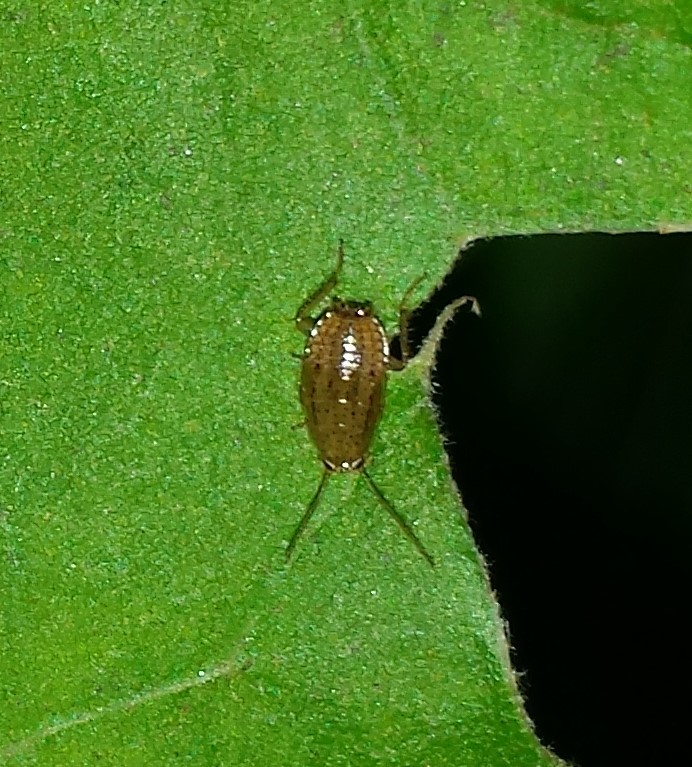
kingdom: Animalia
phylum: Arthropoda
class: Insecta
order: Blattodea
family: Ectobiidae
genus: Ectobius
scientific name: Ectobius pallidus
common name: Tawny cockroach
